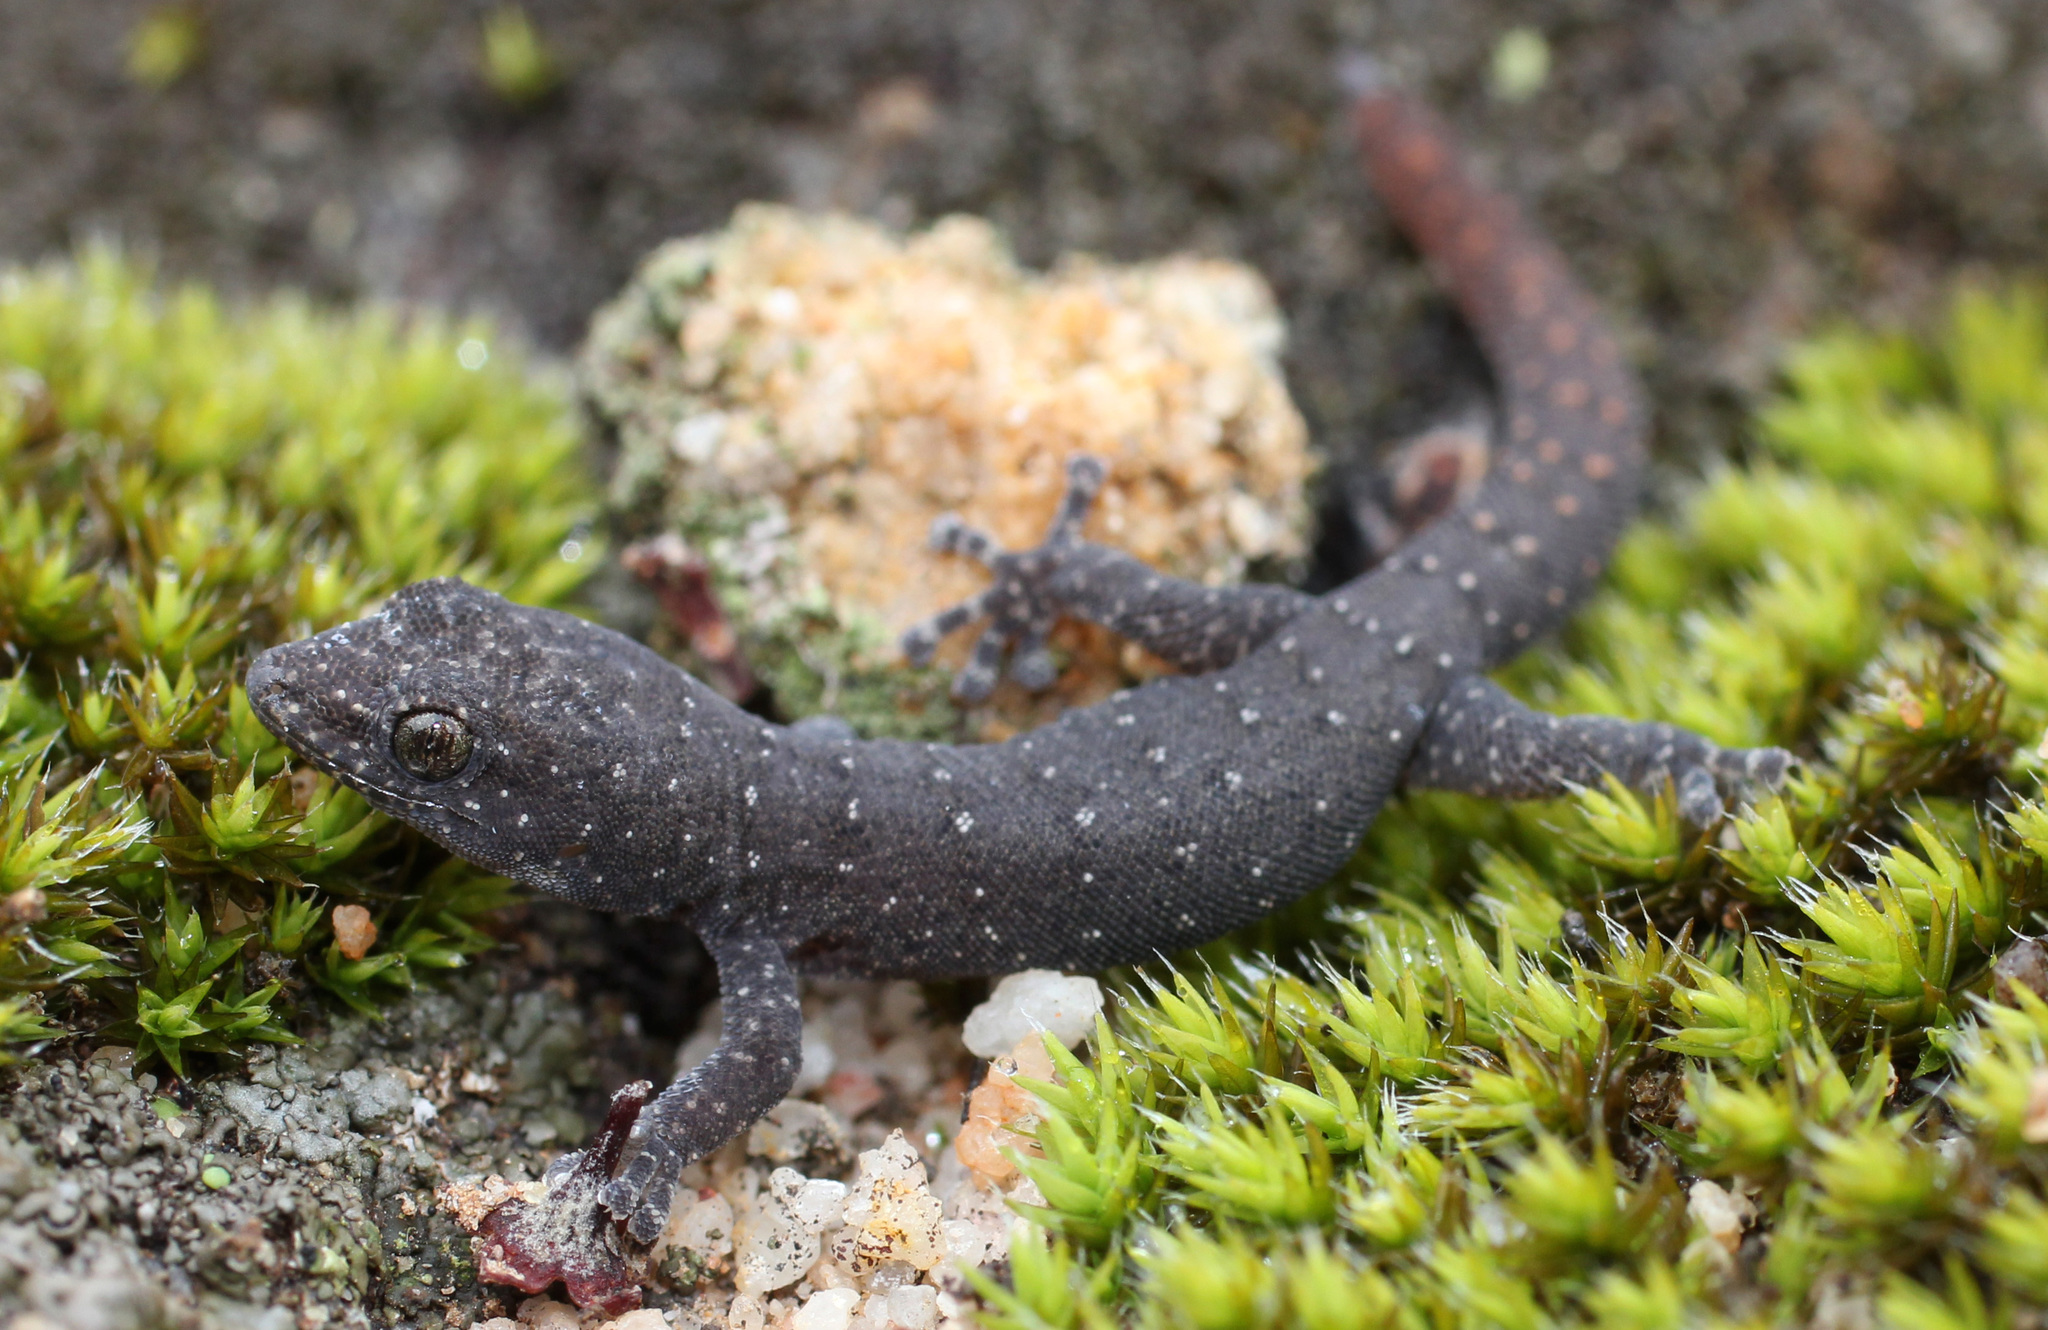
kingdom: Animalia
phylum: Chordata
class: Squamata
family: Gekkonidae
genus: Goggia
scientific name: Goggia hexapora
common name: Cedarberg dwarf leaf-toed gecko
